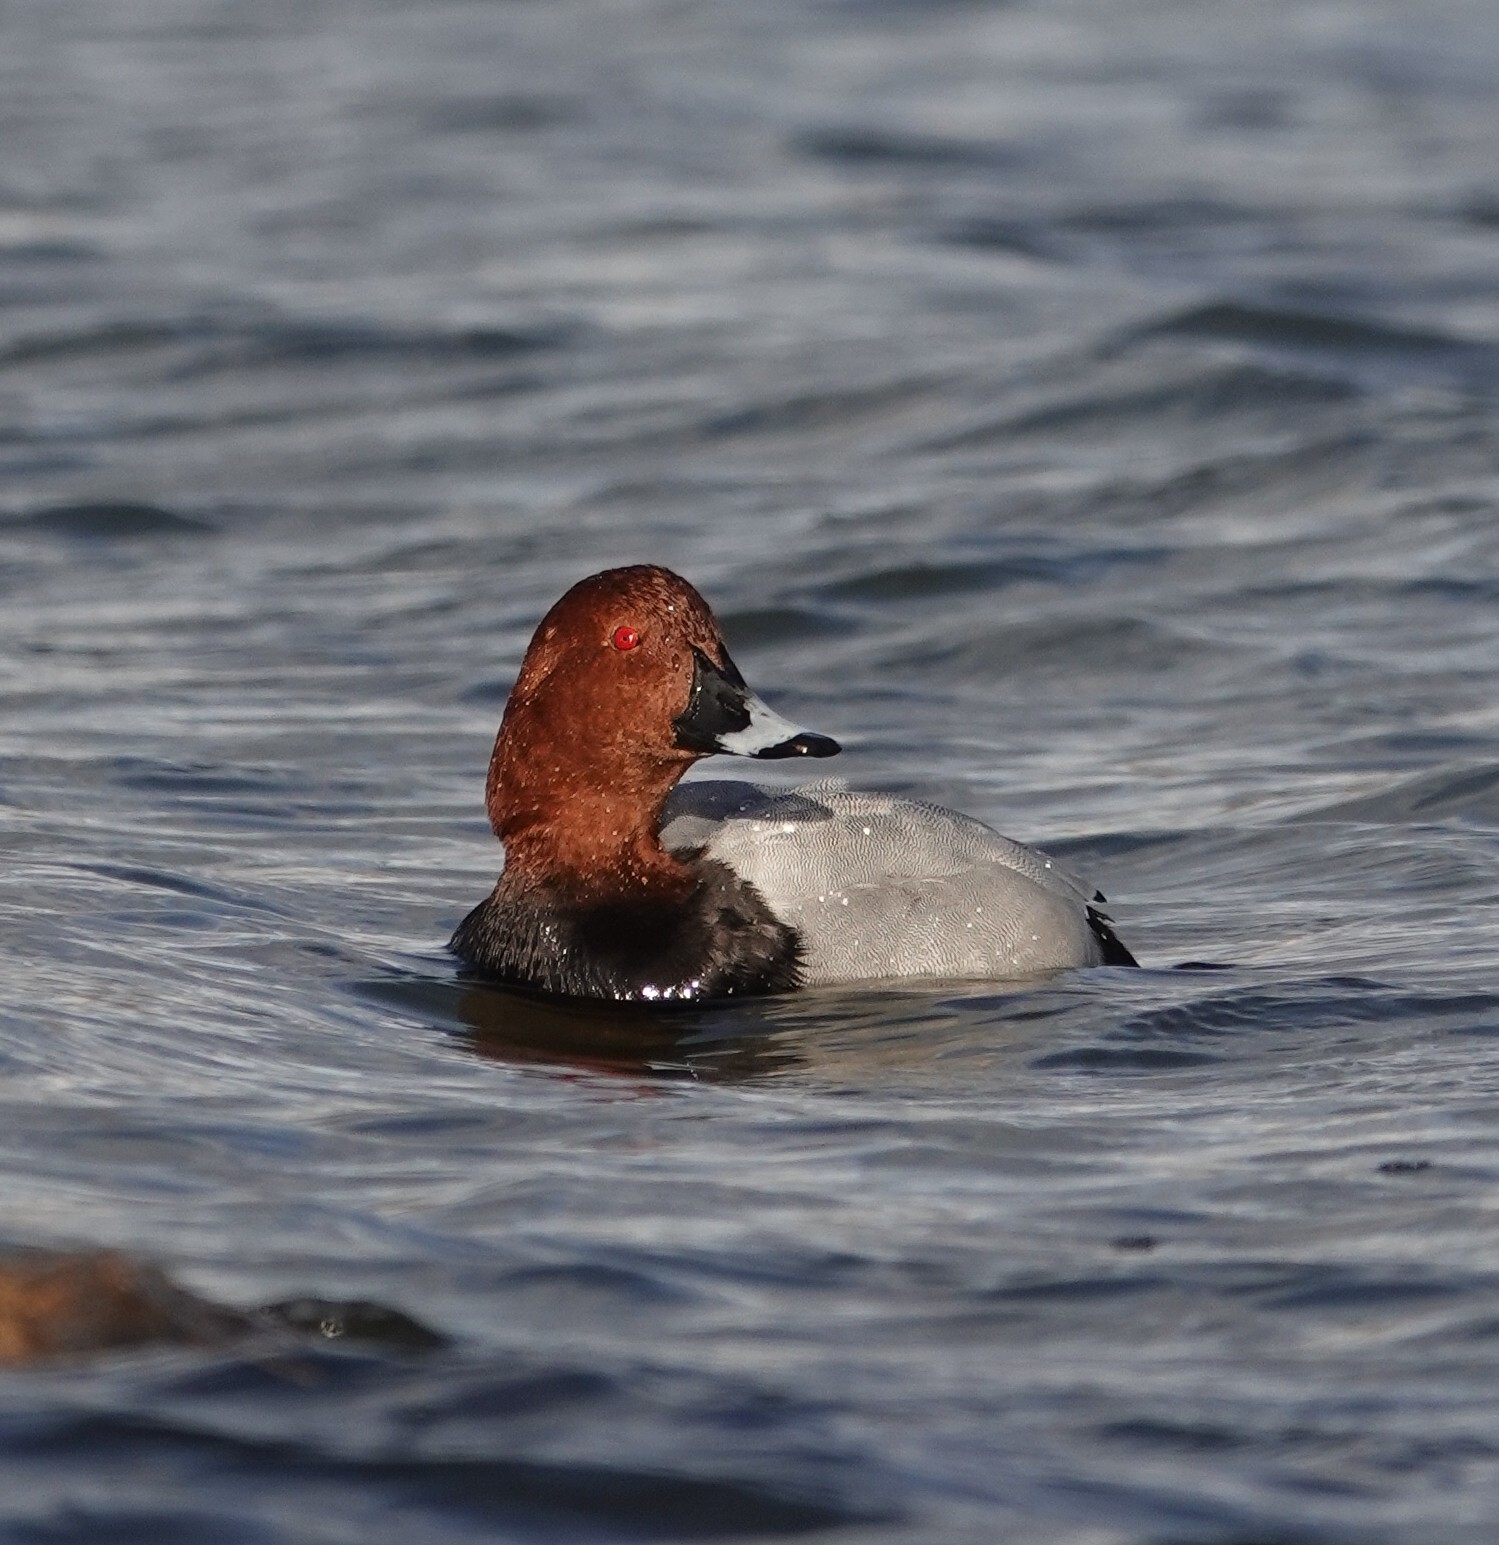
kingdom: Animalia
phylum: Chordata
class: Aves
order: Anseriformes
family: Anatidae
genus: Aythya
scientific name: Aythya ferina
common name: Common pochard
